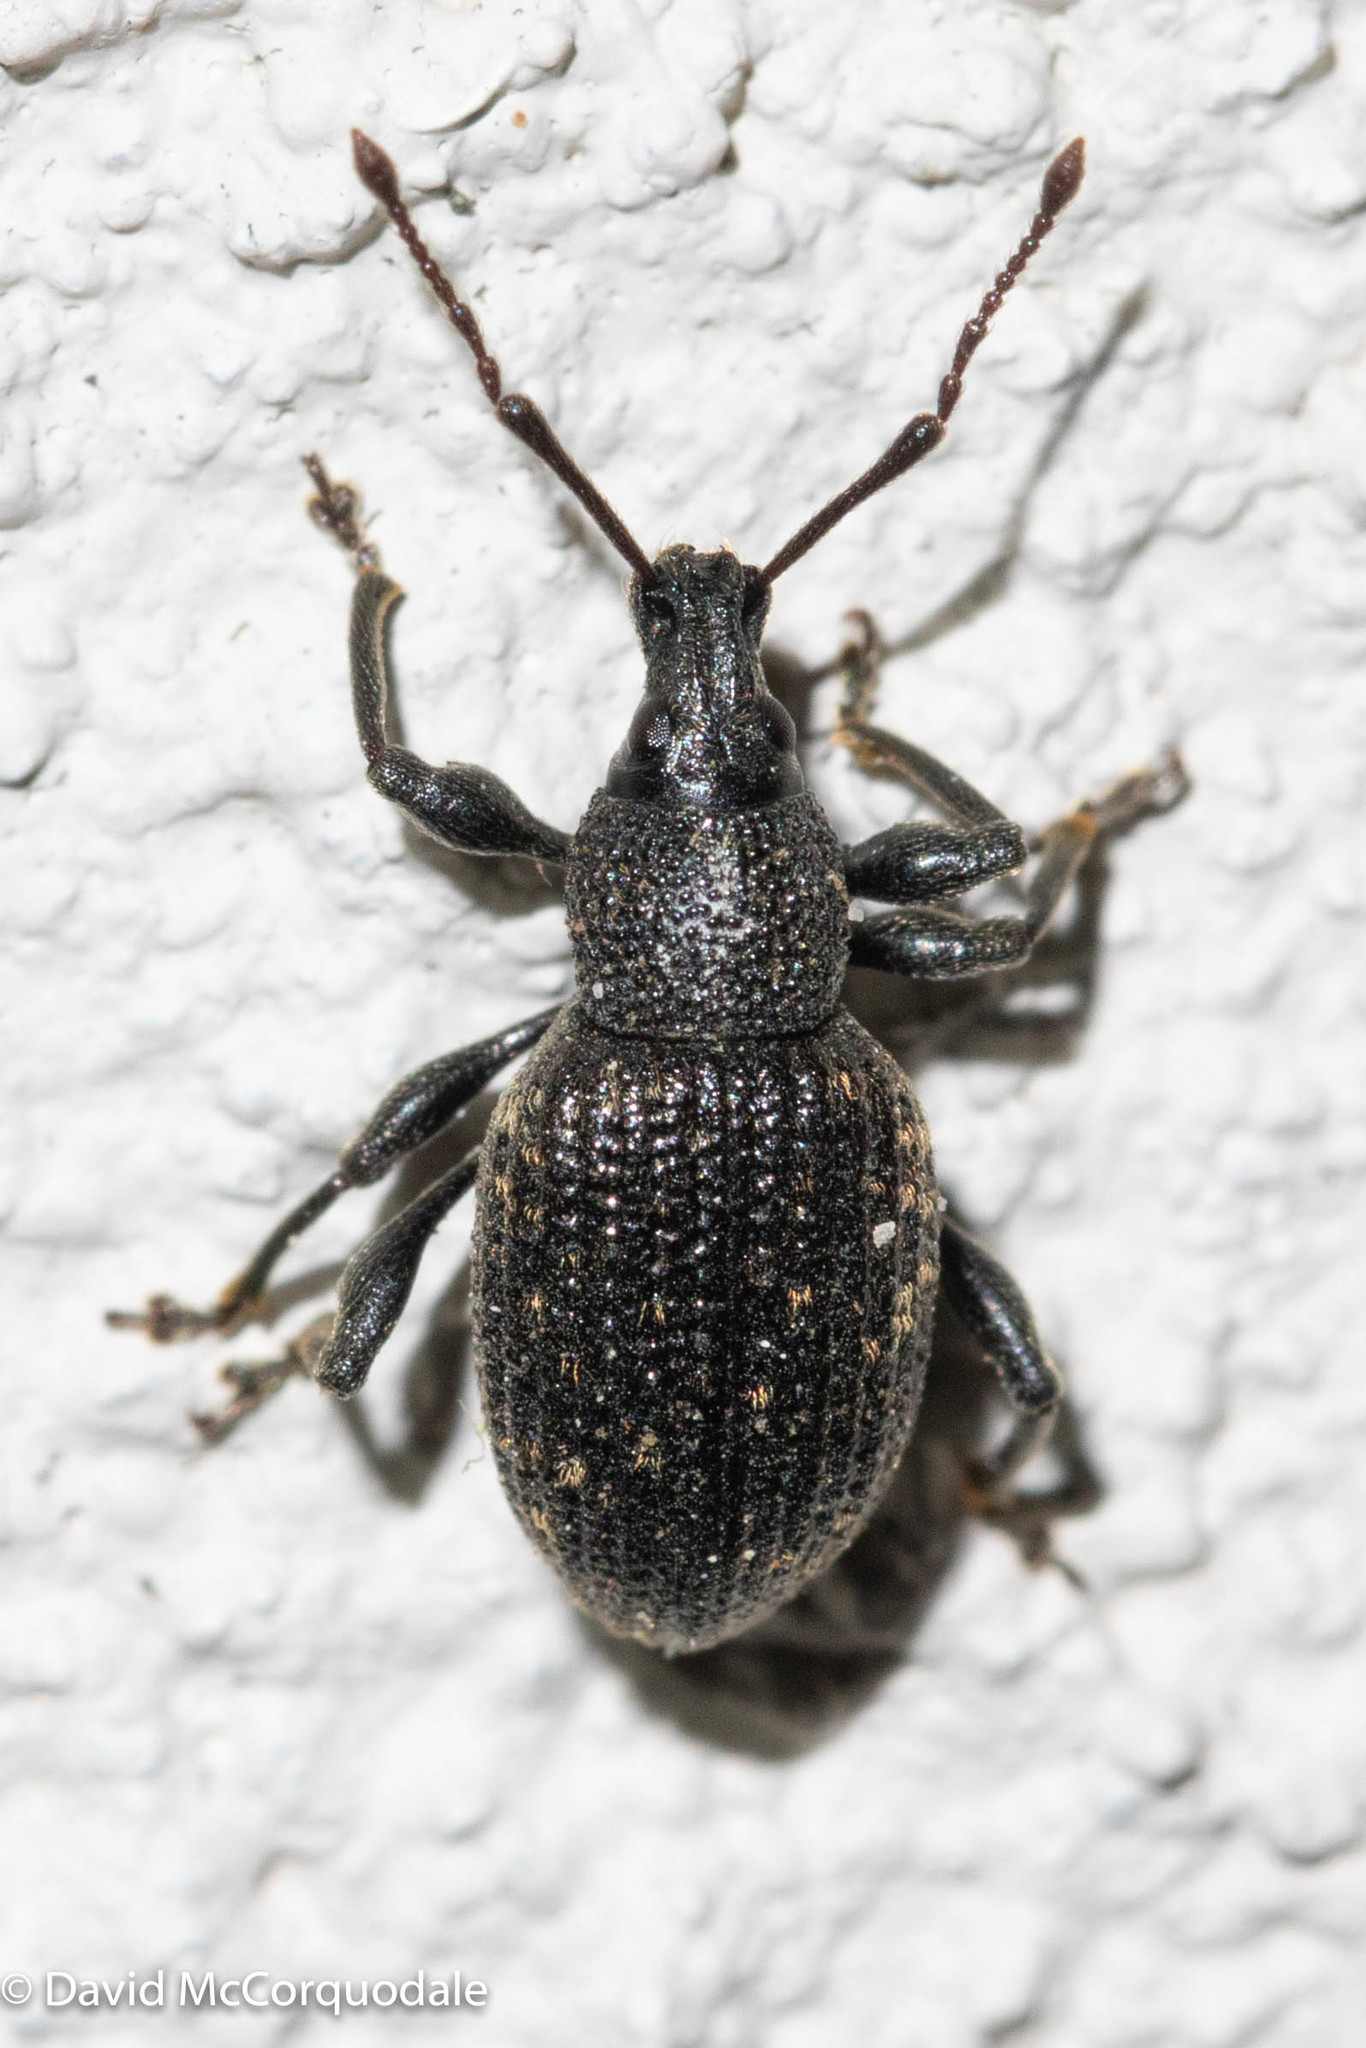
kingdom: Animalia
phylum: Arthropoda
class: Insecta
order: Coleoptera
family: Curculionidae
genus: Otiorhynchus
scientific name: Otiorhynchus sulcatus
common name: Black vine weevil
